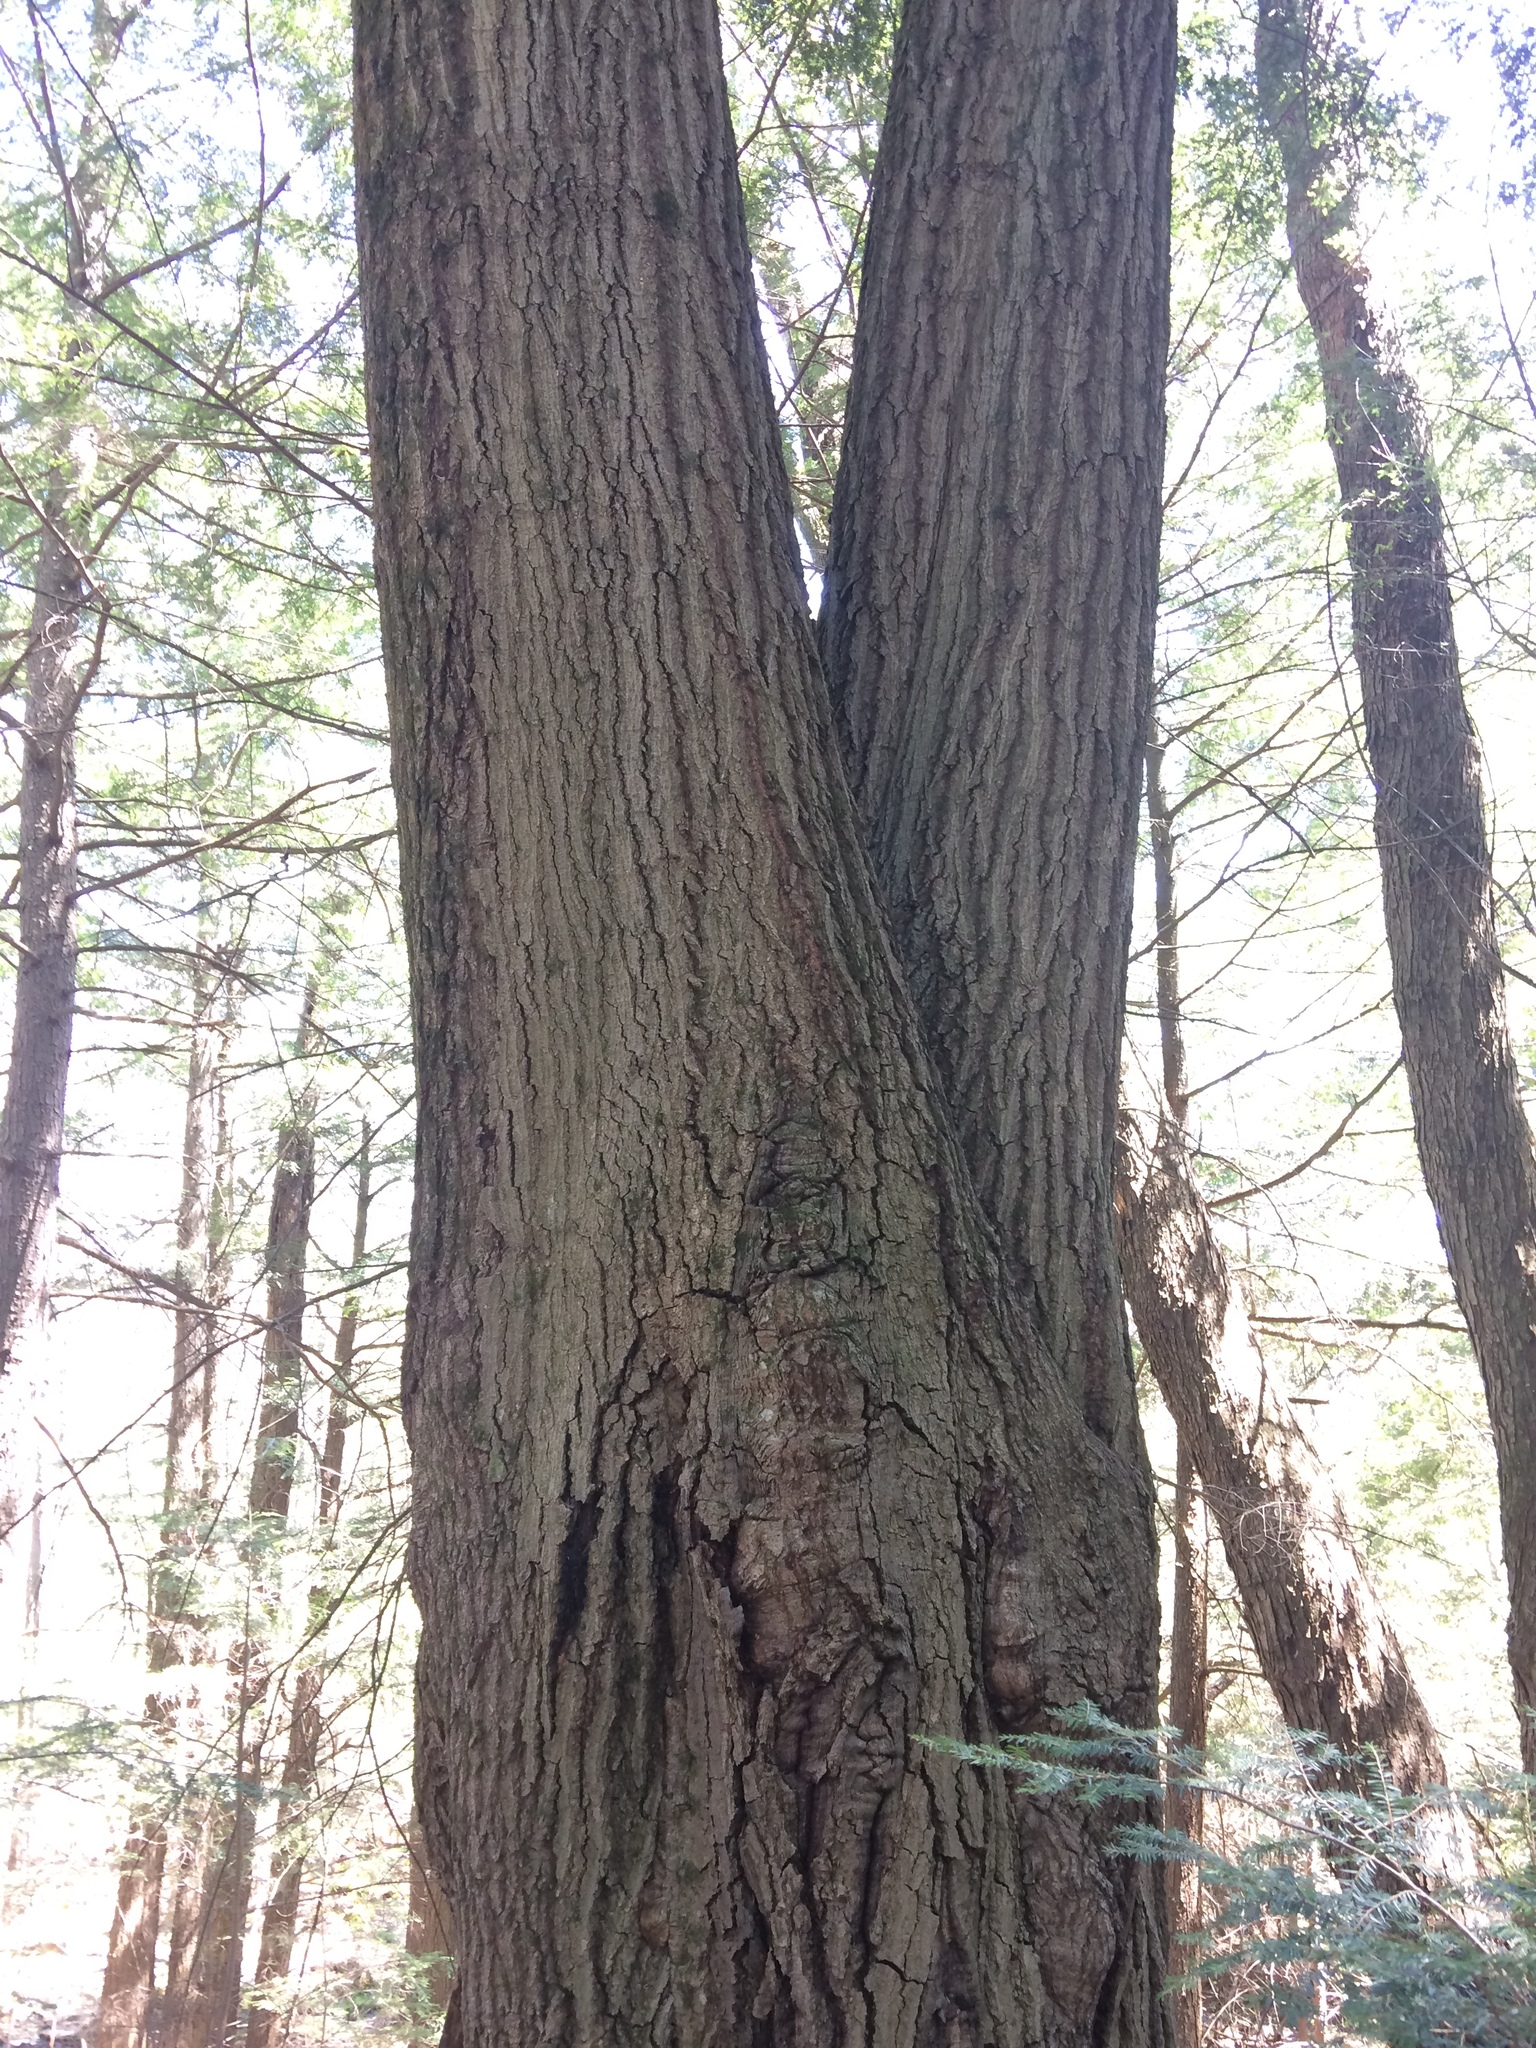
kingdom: Plantae
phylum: Tracheophyta
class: Magnoliopsida
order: Fagales
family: Fagaceae
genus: Quercus
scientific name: Quercus rubra
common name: Red oak
